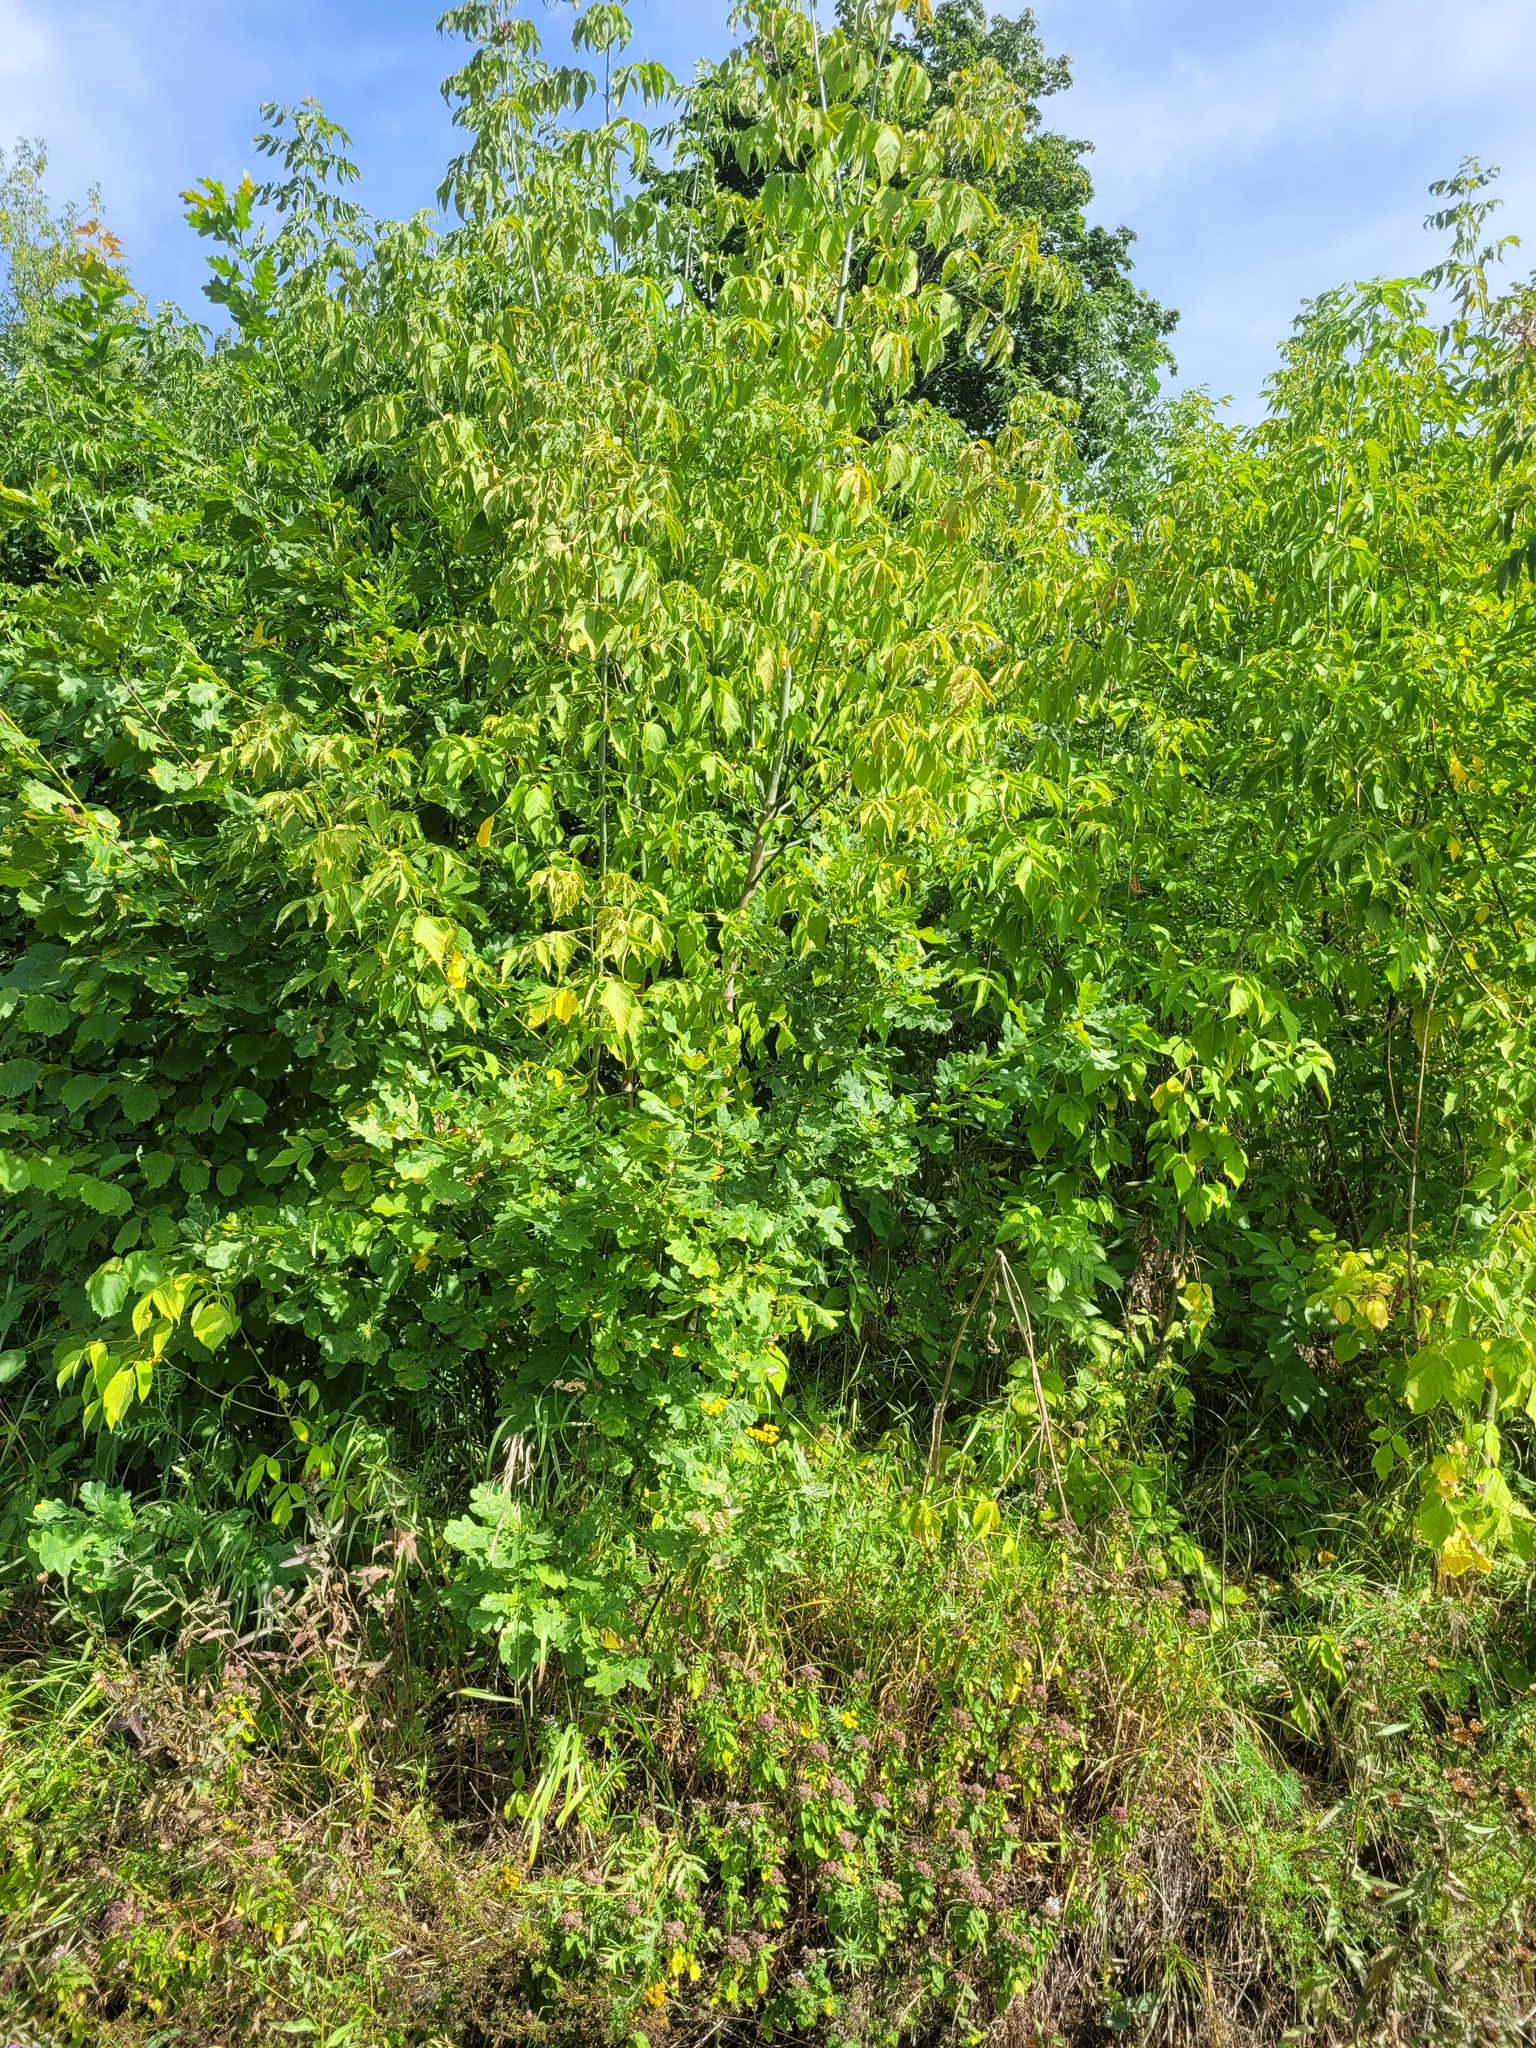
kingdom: Plantae
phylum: Tracheophyta
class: Magnoliopsida
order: Fagales
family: Fagaceae
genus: Quercus
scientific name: Quercus robur
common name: Pedunculate oak
